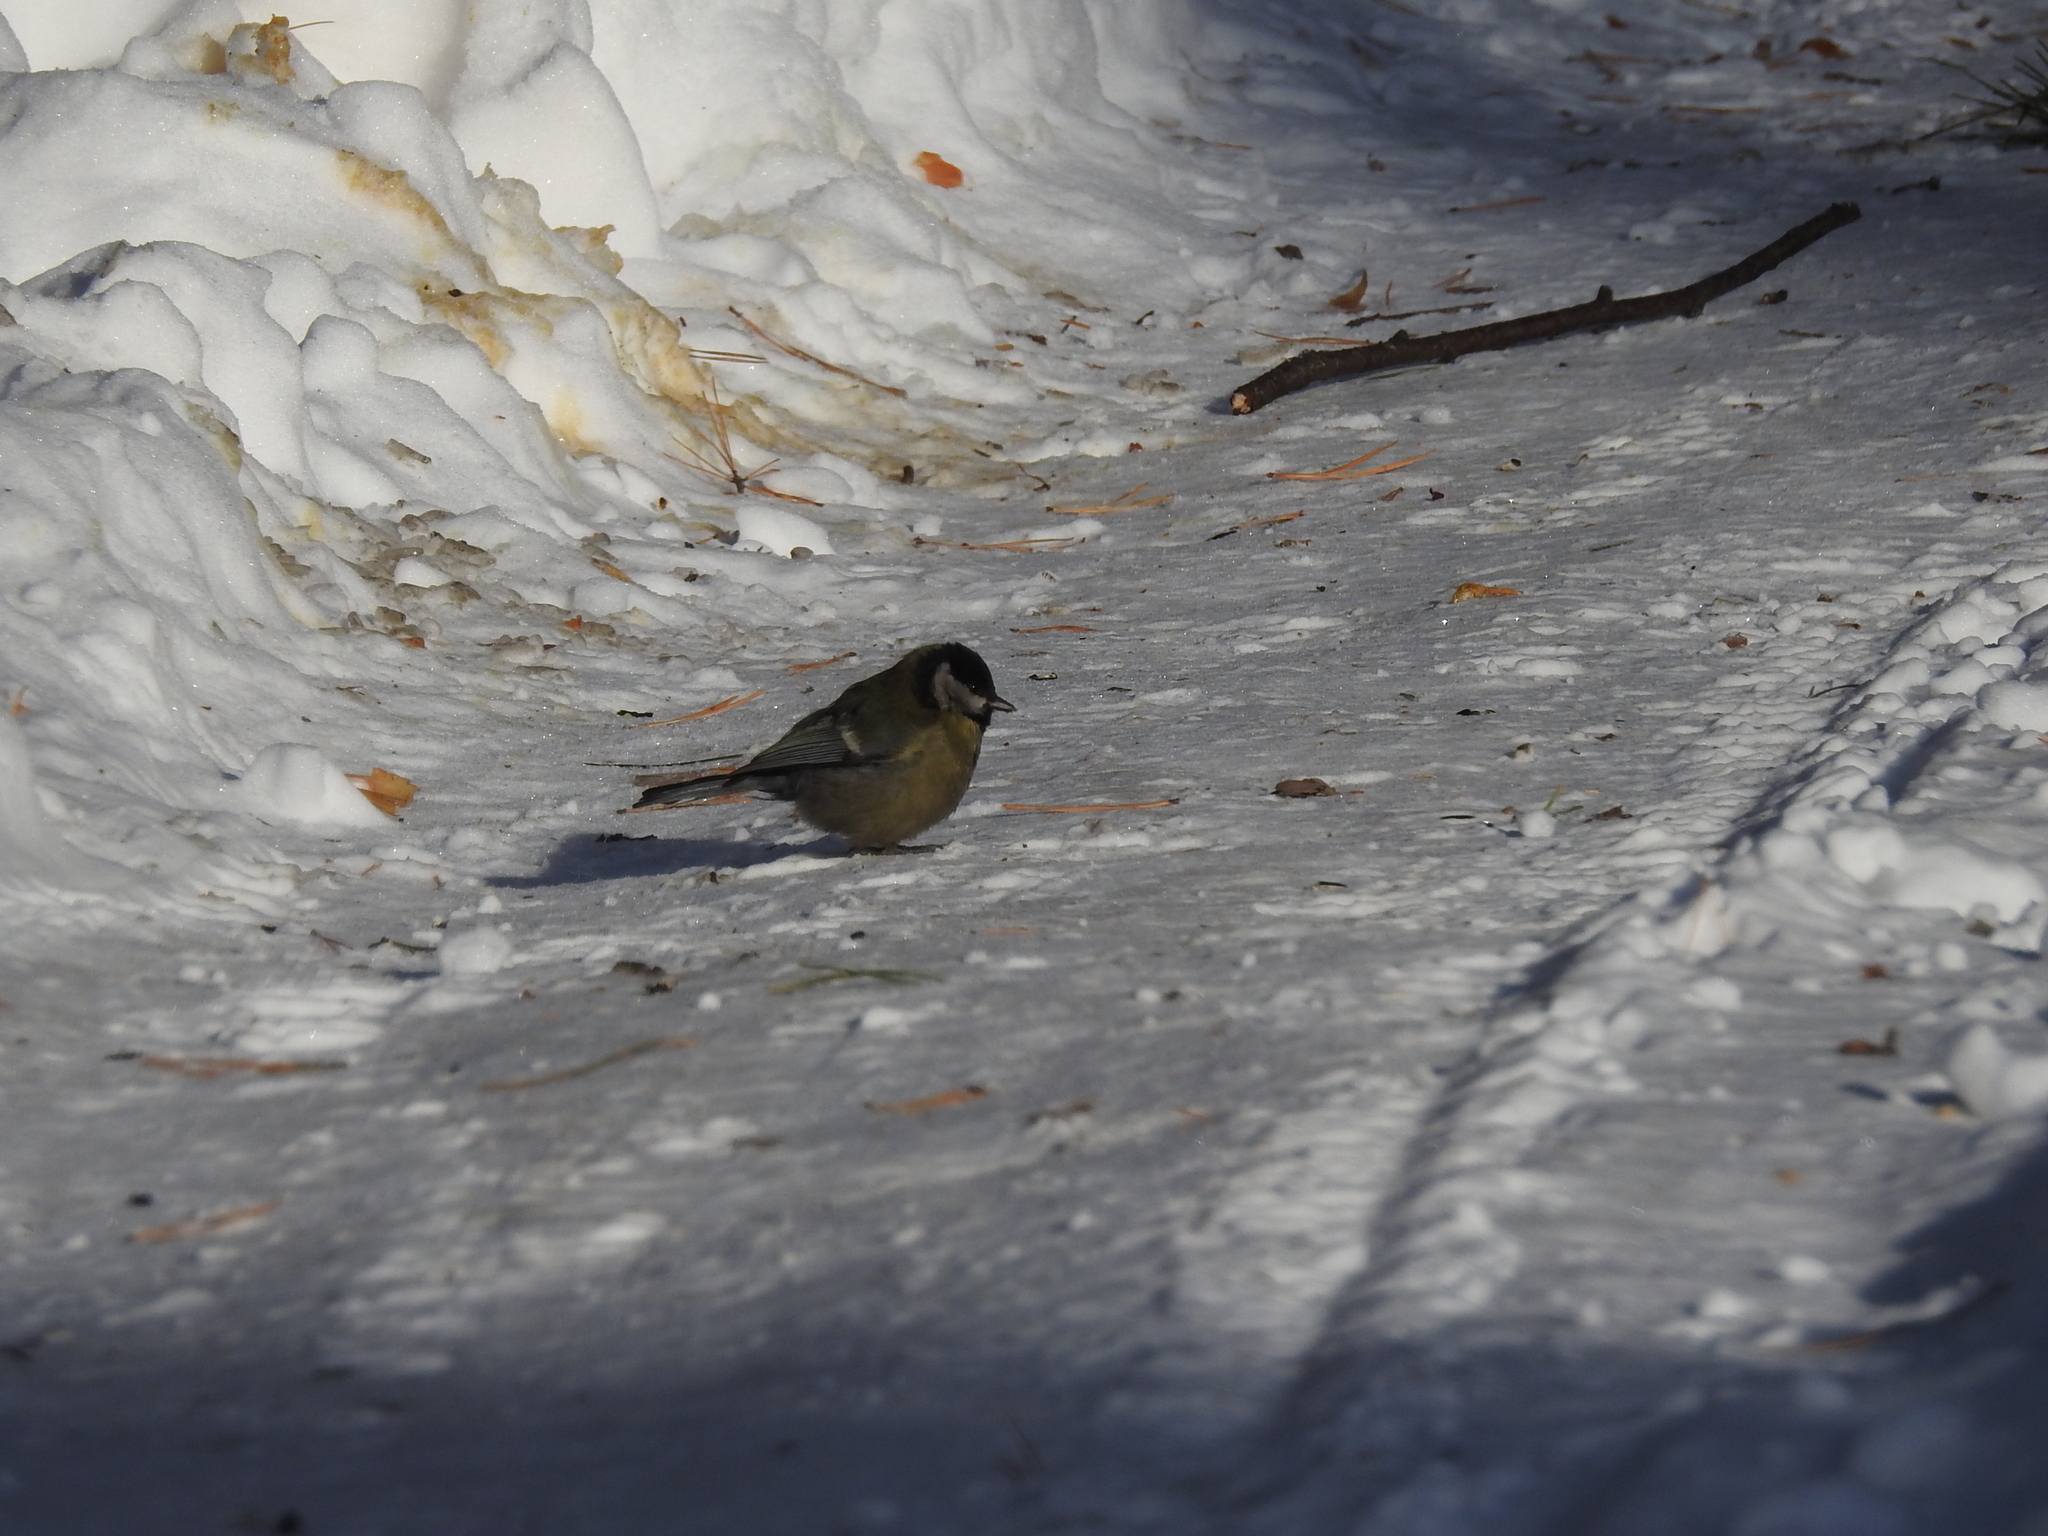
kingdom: Animalia
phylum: Chordata
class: Aves
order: Passeriformes
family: Paridae
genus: Parus
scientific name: Parus major
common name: Great tit
